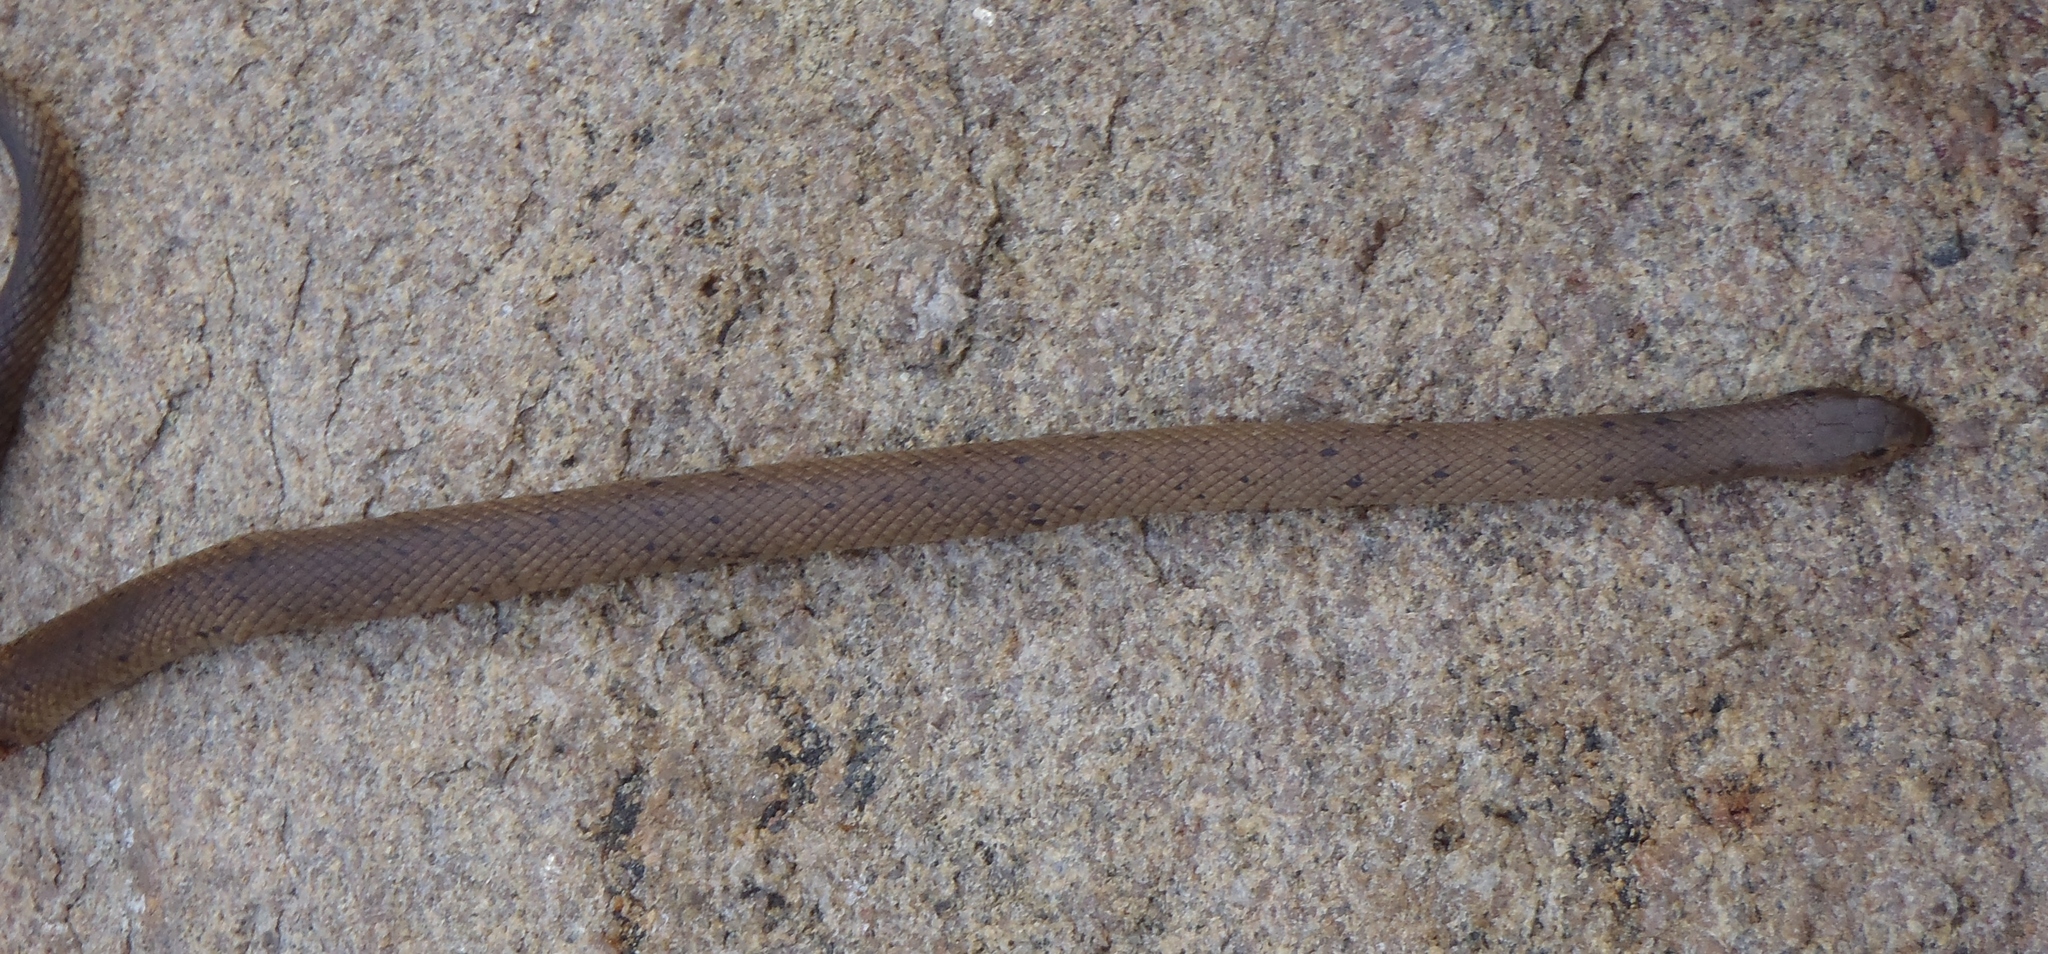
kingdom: Animalia
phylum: Chordata
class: Squamata
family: Elapidae
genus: Pseudonaja
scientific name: Pseudonaja affinis
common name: Dugite
